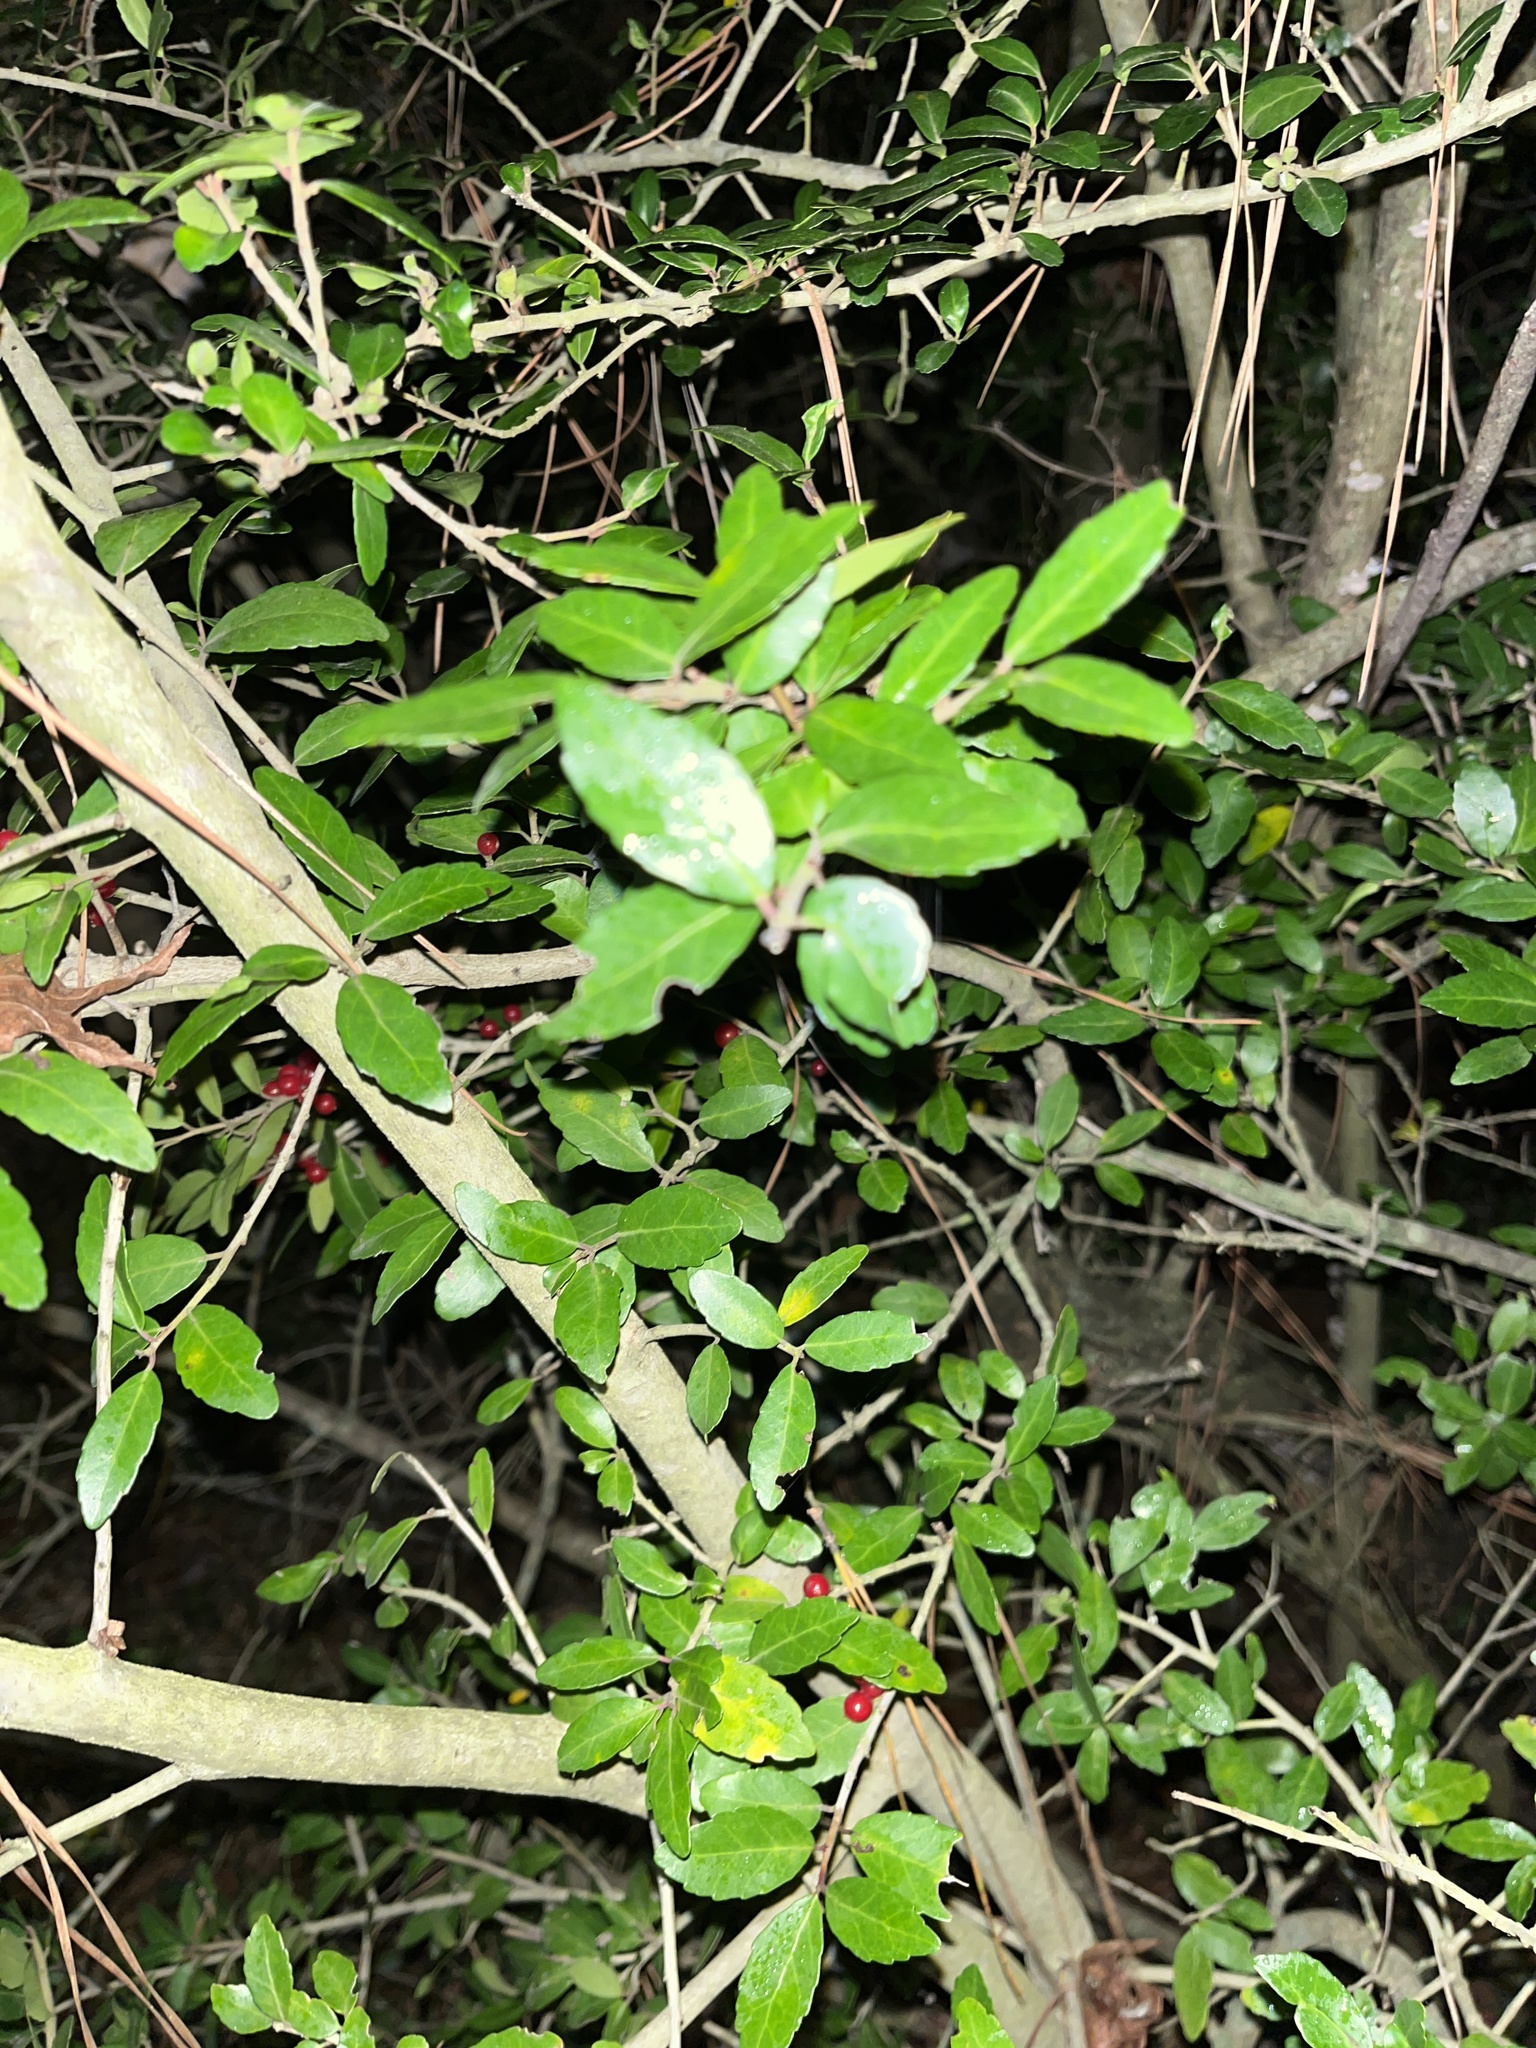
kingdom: Plantae
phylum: Tracheophyta
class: Magnoliopsida
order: Aquifoliales
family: Aquifoliaceae
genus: Ilex
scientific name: Ilex vomitoria
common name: Yaupon holly
